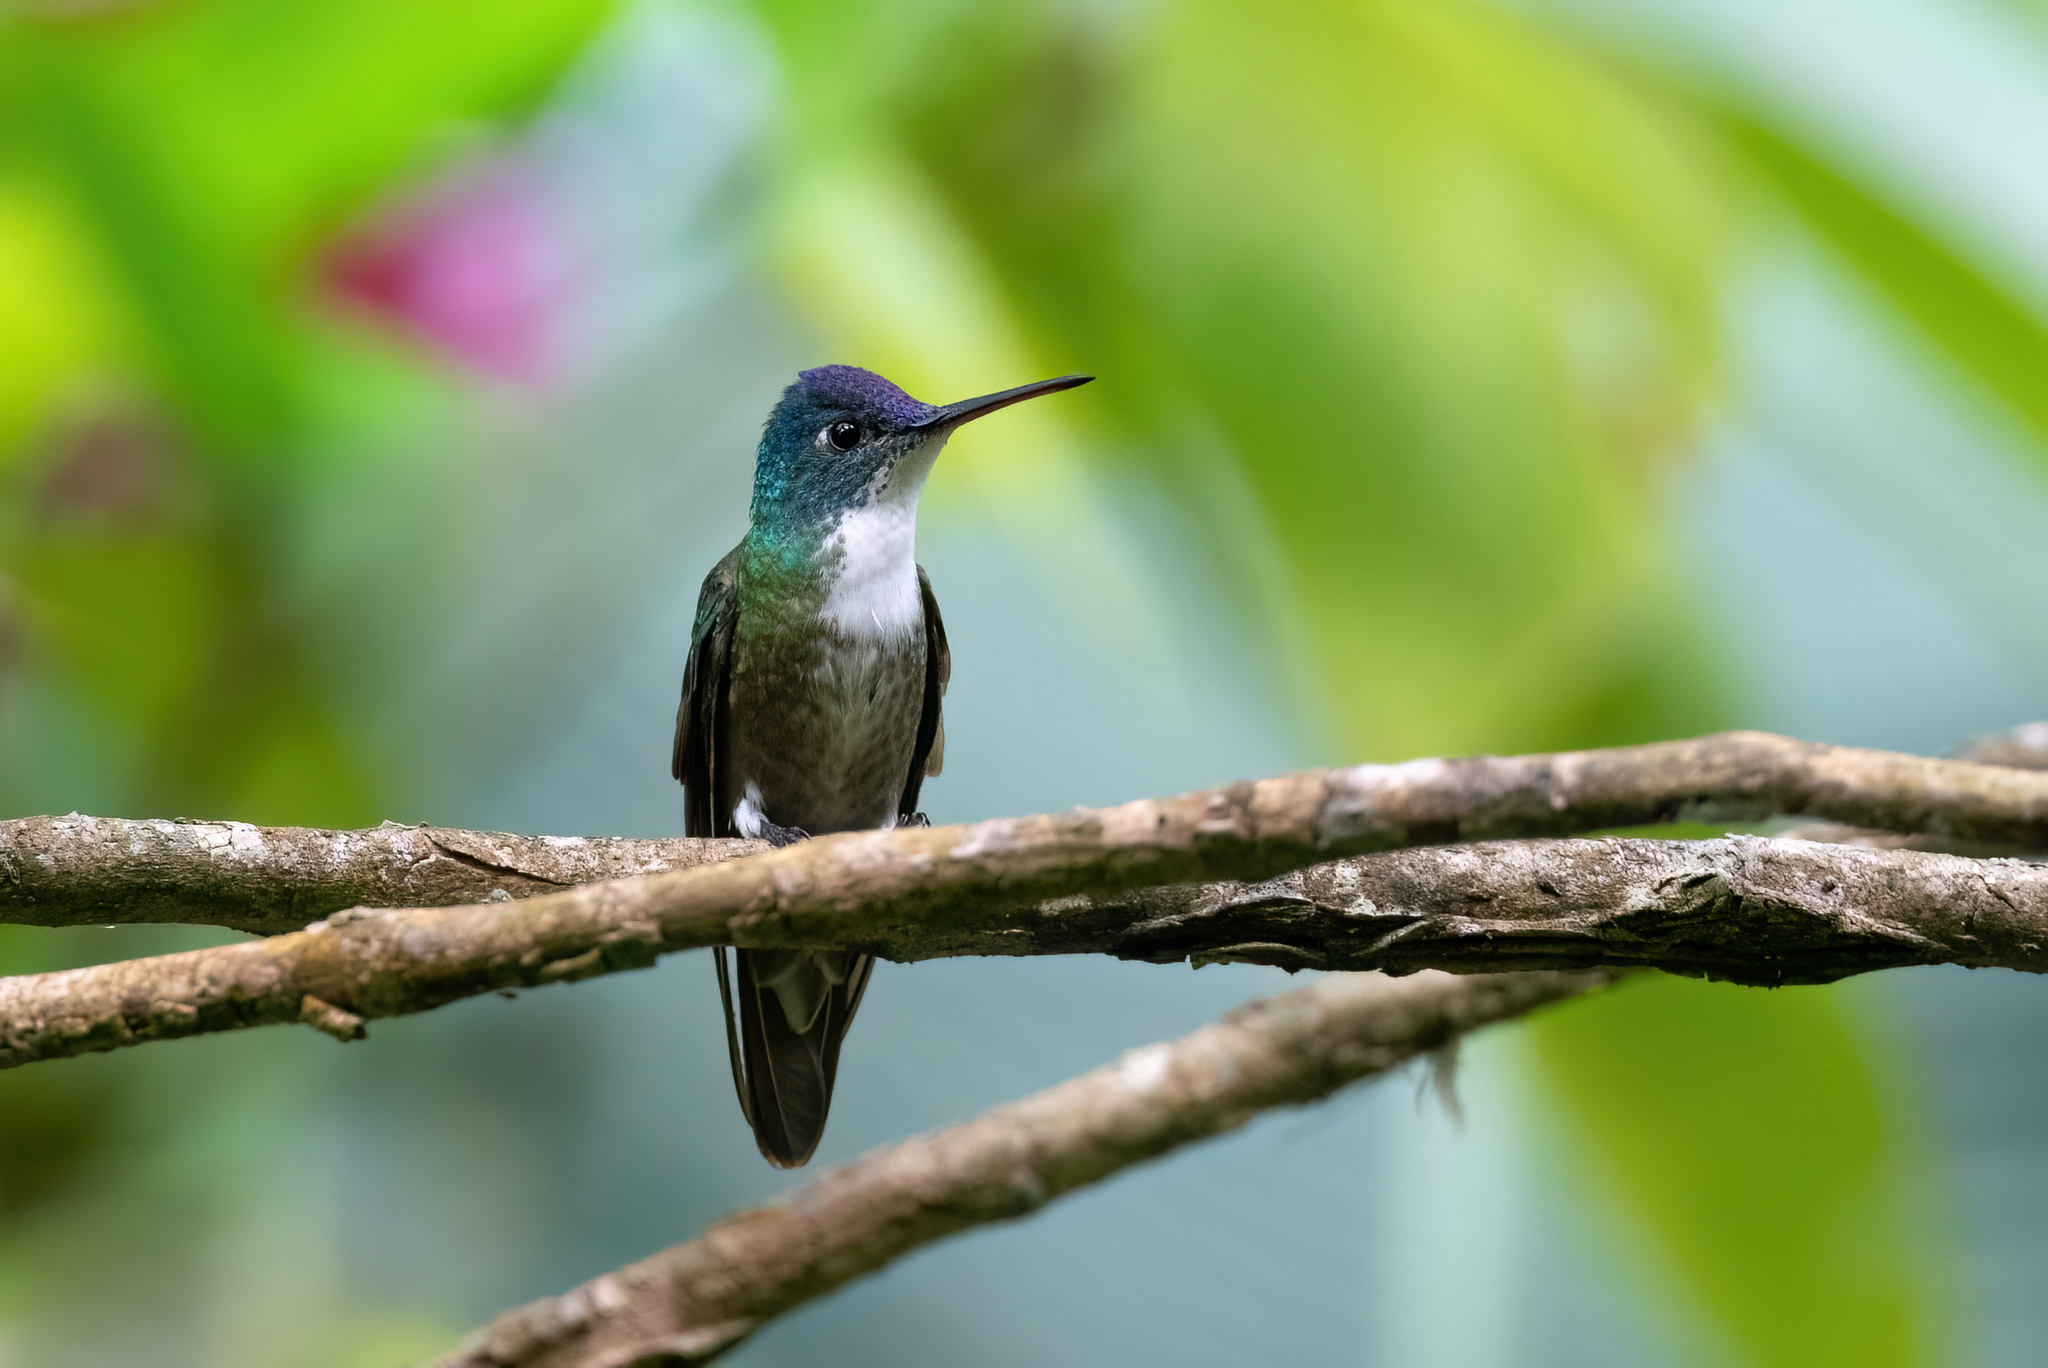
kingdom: Animalia
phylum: Chordata
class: Aves
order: Apodiformes
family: Trochilidae
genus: Saucerottia
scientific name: Saucerottia cyanocephala
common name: Azure-crowned hummingbird
